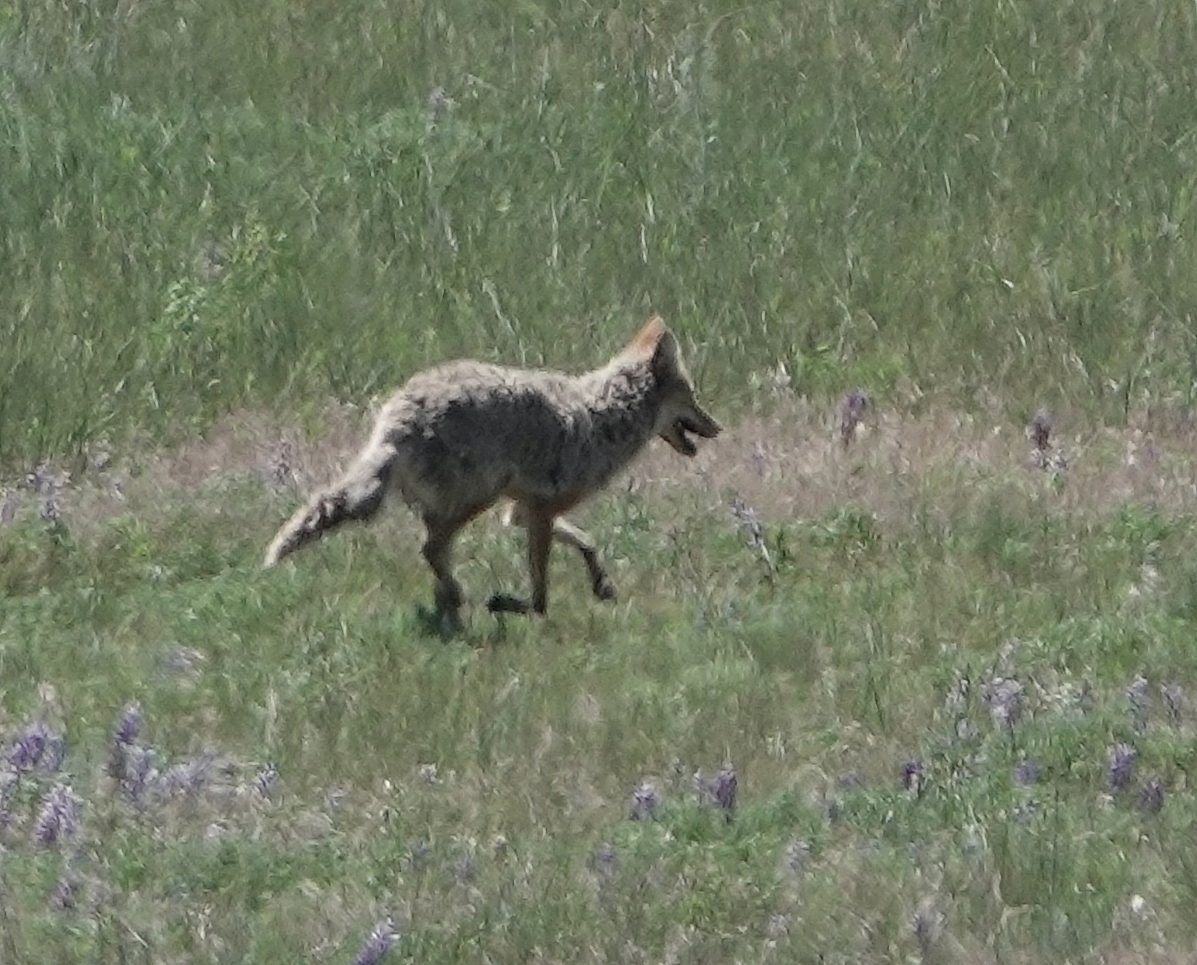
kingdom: Animalia
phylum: Chordata
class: Mammalia
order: Carnivora
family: Canidae
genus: Canis
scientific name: Canis latrans
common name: Coyote
